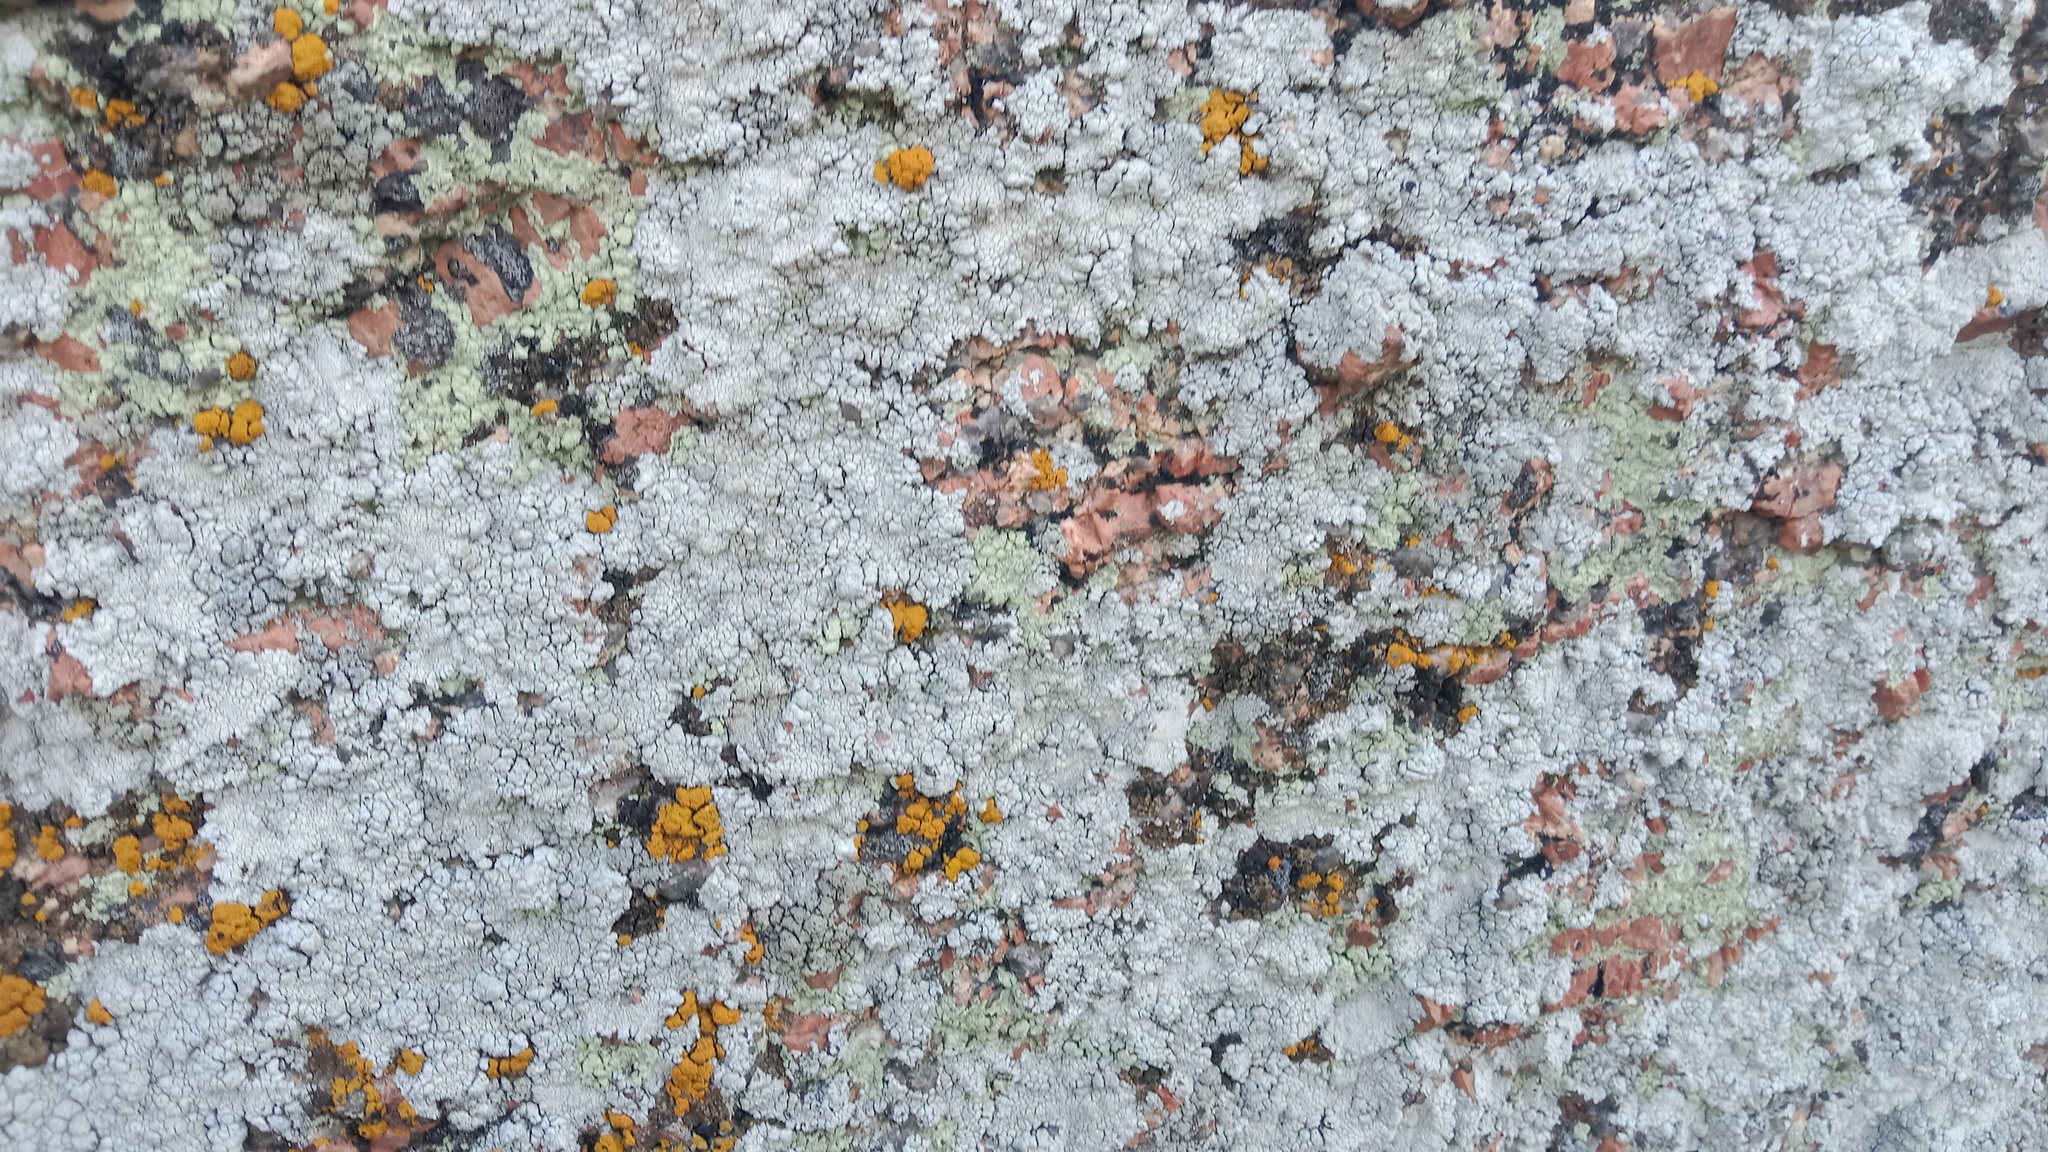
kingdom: Fungi
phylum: Ascomycota
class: Lecanoromycetes
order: Lecanorales
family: Lecanoraceae
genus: Glaucomaria
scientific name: Glaucomaria rupicola
